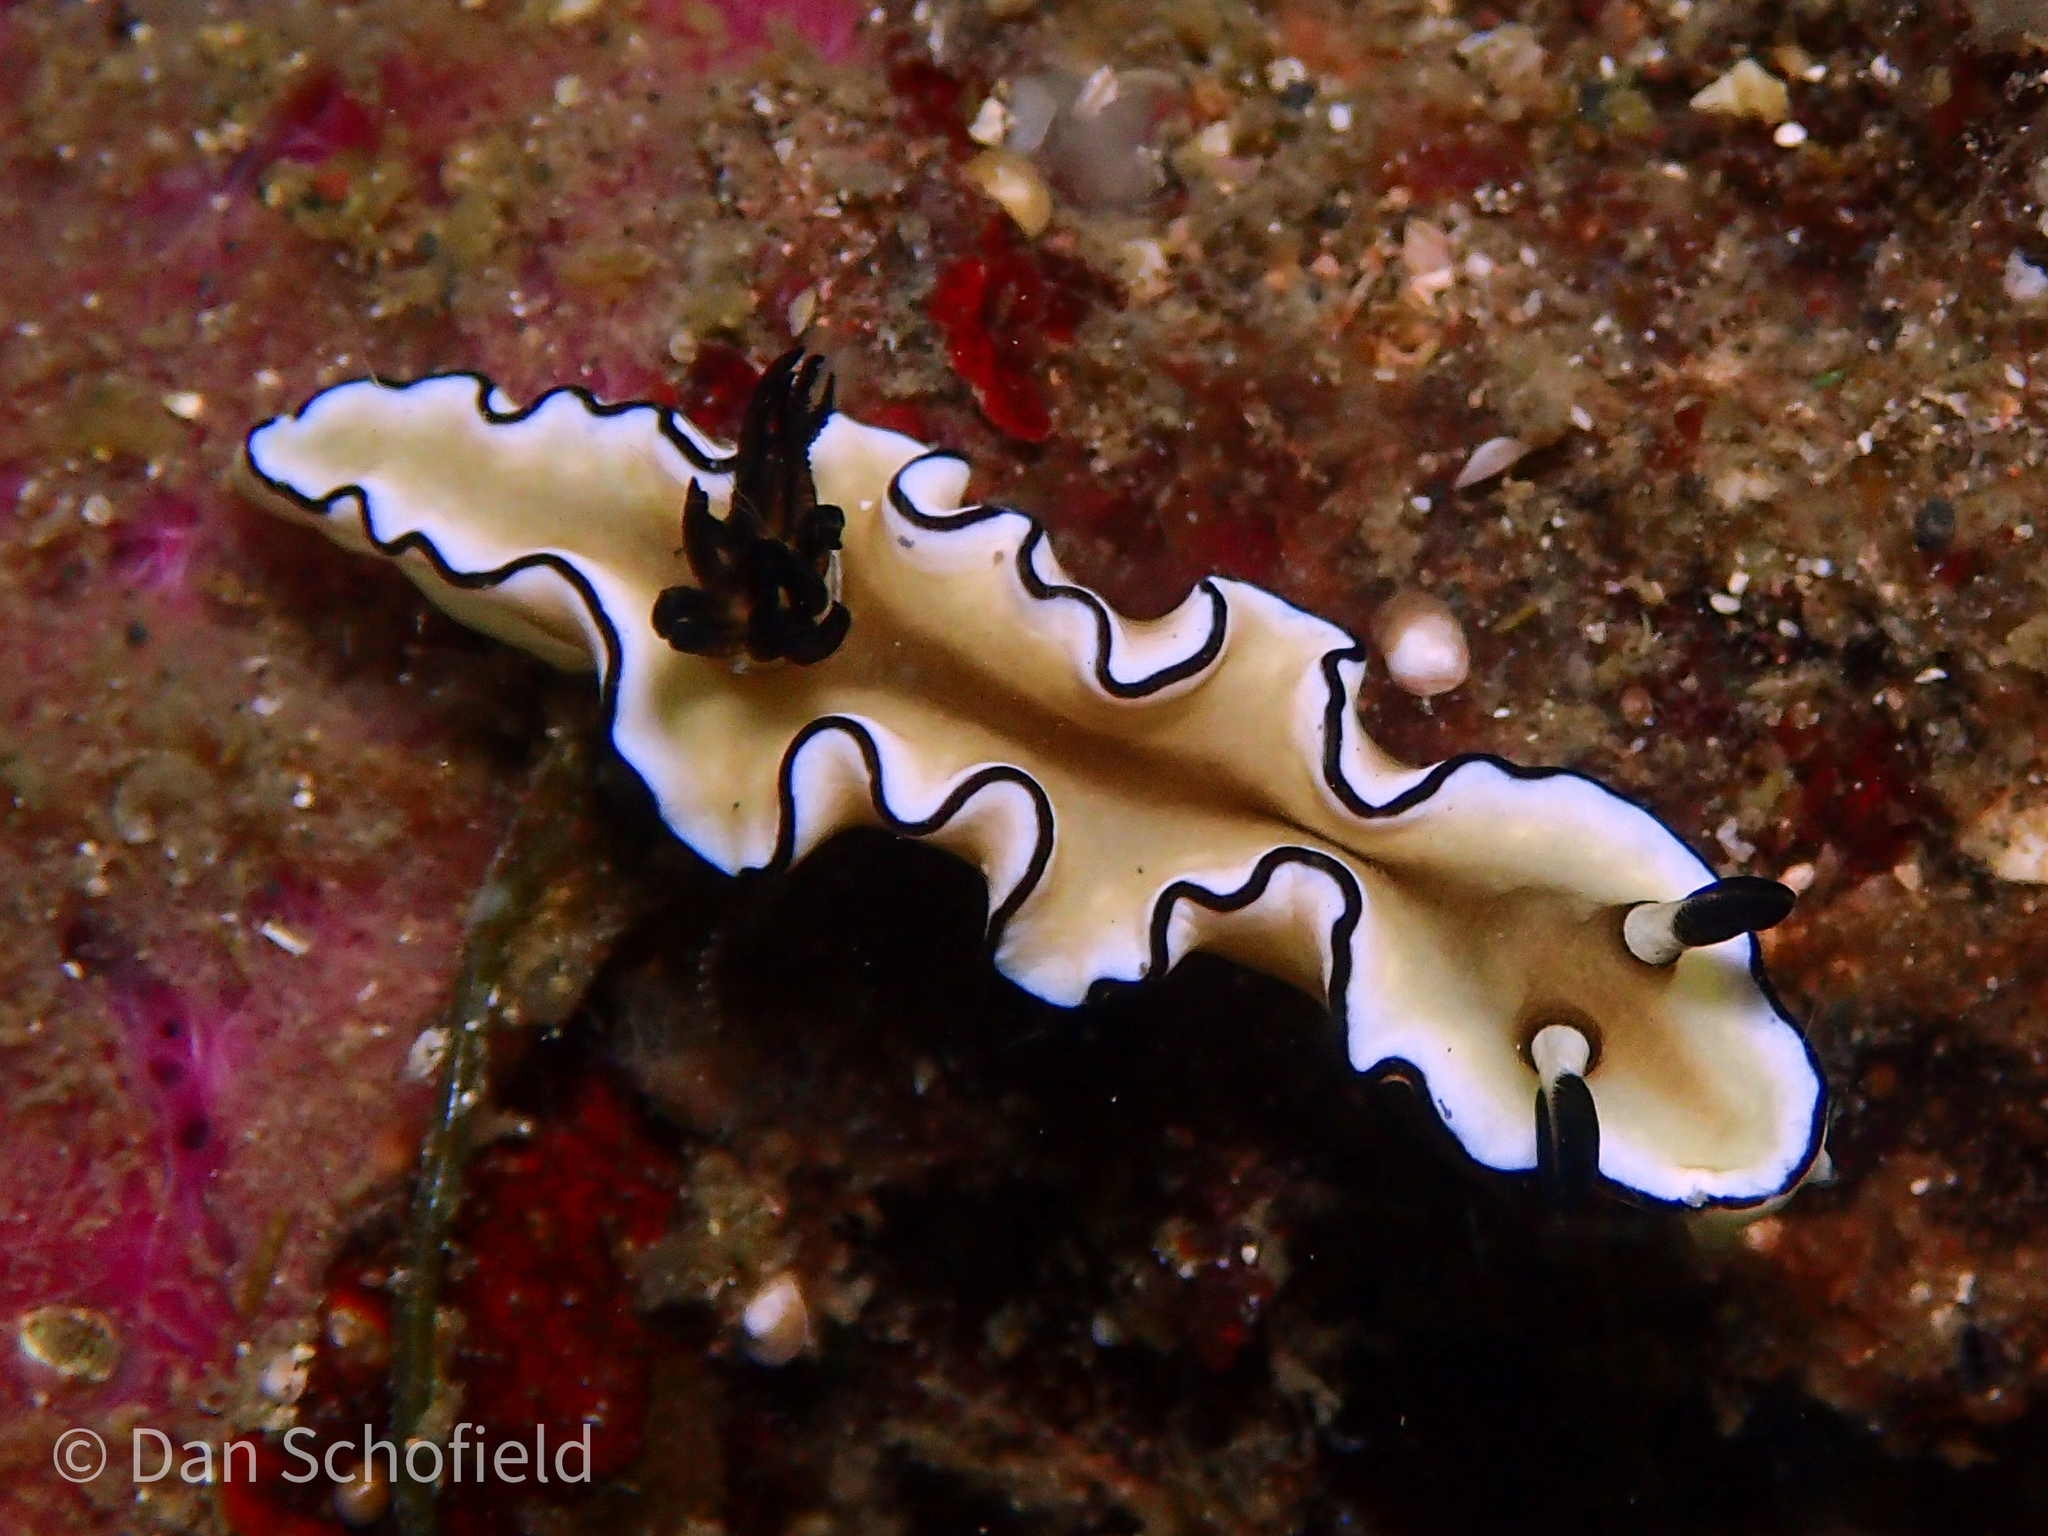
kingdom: Animalia
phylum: Mollusca
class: Gastropoda
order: Nudibranchia
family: Chromodorididae
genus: Doriprismatica
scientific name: Doriprismatica atromarginata
